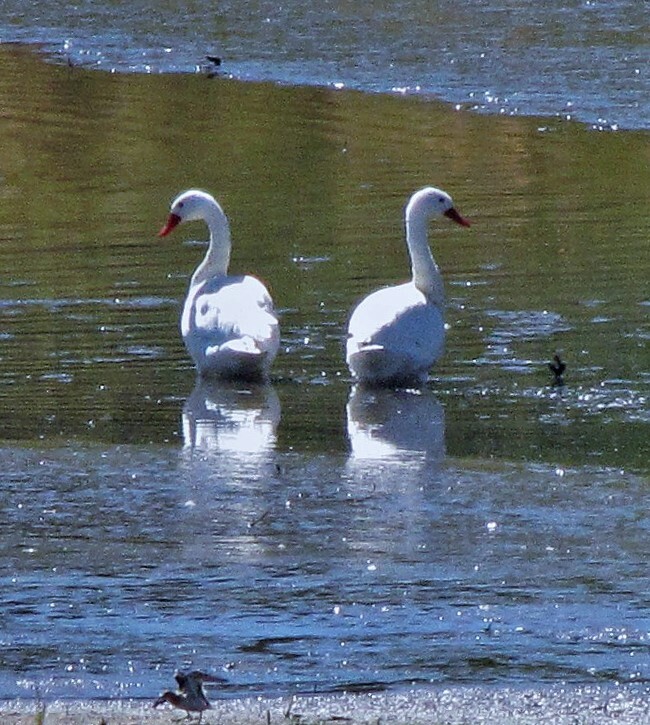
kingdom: Animalia
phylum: Chordata
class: Aves
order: Anseriformes
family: Anatidae
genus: Coscoroba
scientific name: Coscoroba coscoroba
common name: Coscoroba swan
